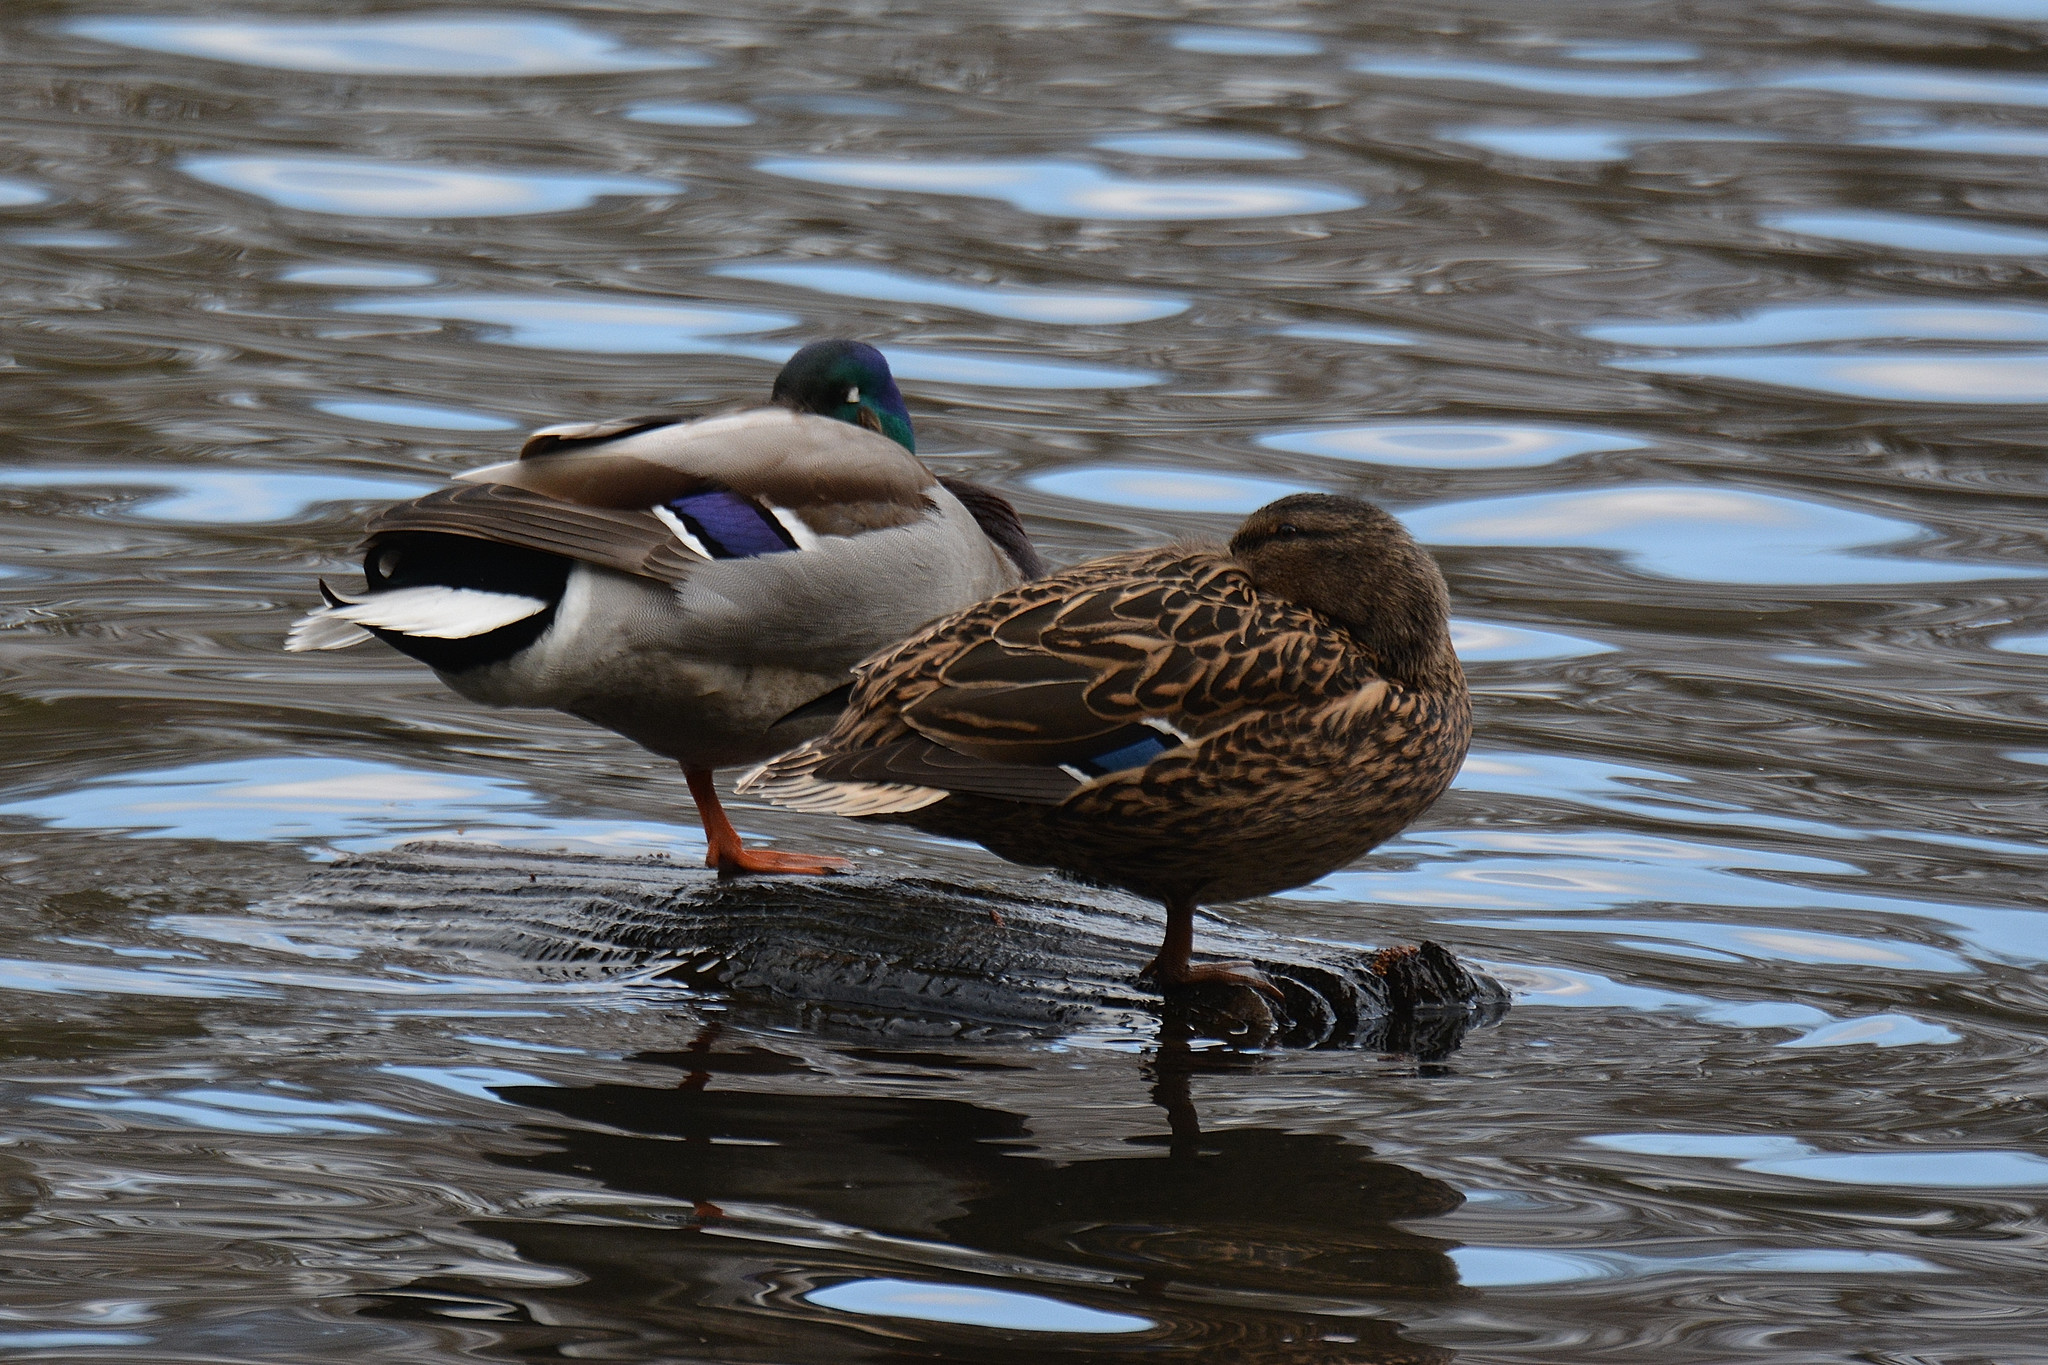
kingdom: Animalia
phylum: Chordata
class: Aves
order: Anseriformes
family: Anatidae
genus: Anas
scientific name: Anas platyrhynchos
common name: Mallard
